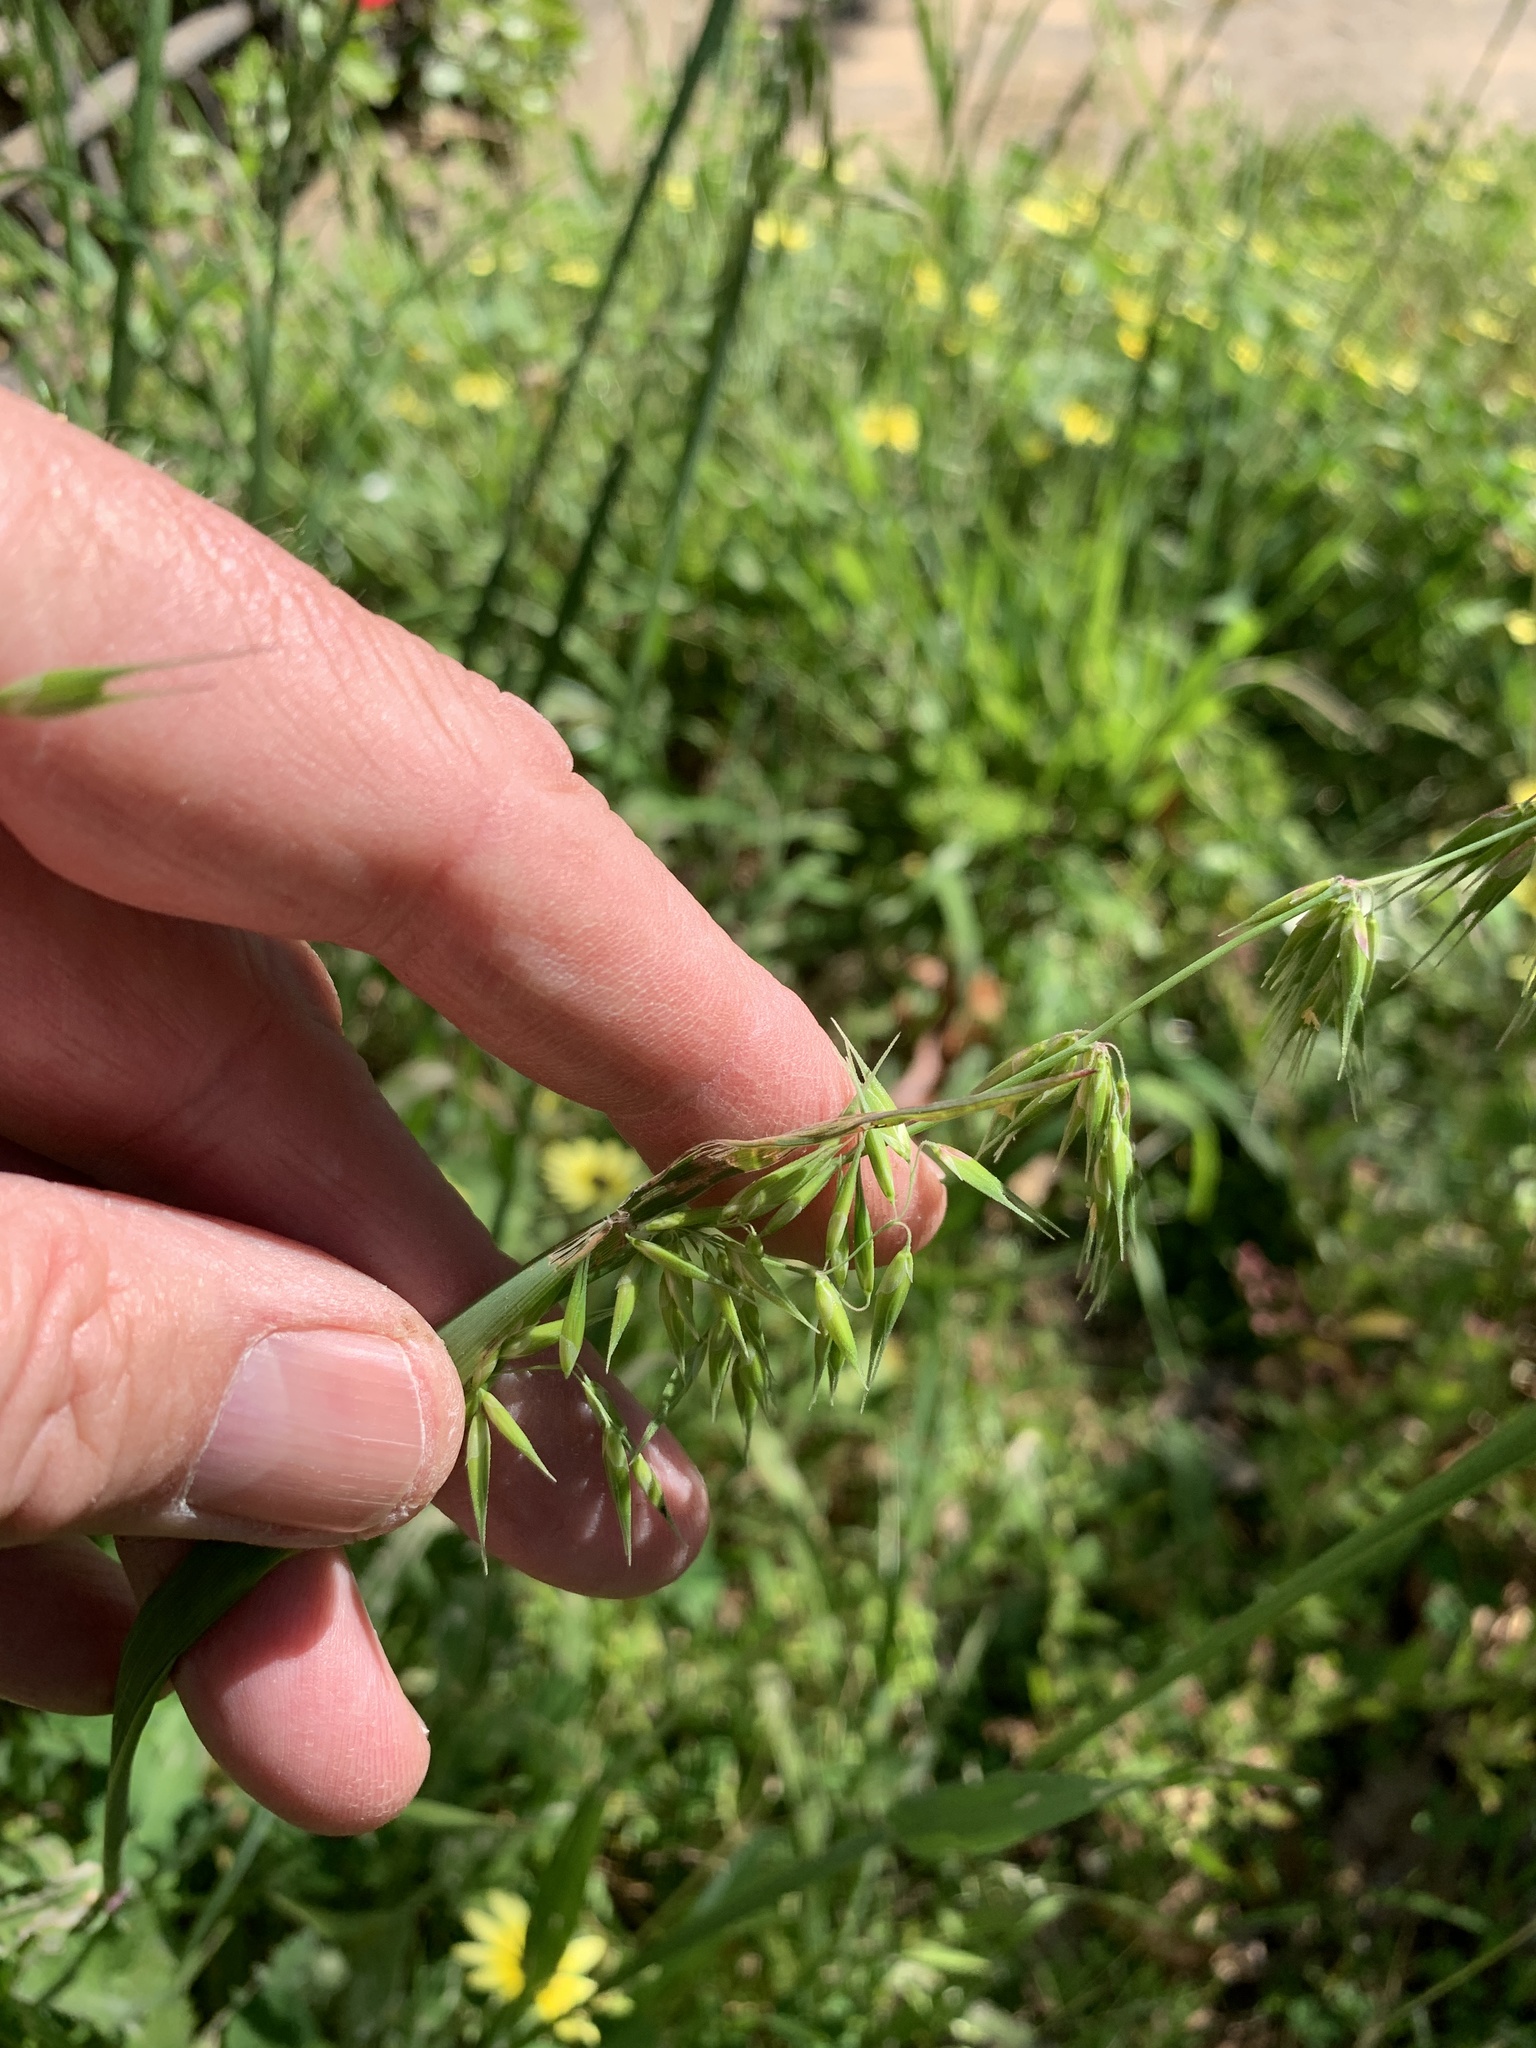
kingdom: Plantae
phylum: Tracheophyta
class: Liliopsida
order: Poales
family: Poaceae
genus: Ehrharta
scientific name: Ehrharta longiflora
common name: Longflowered veldtgrass
